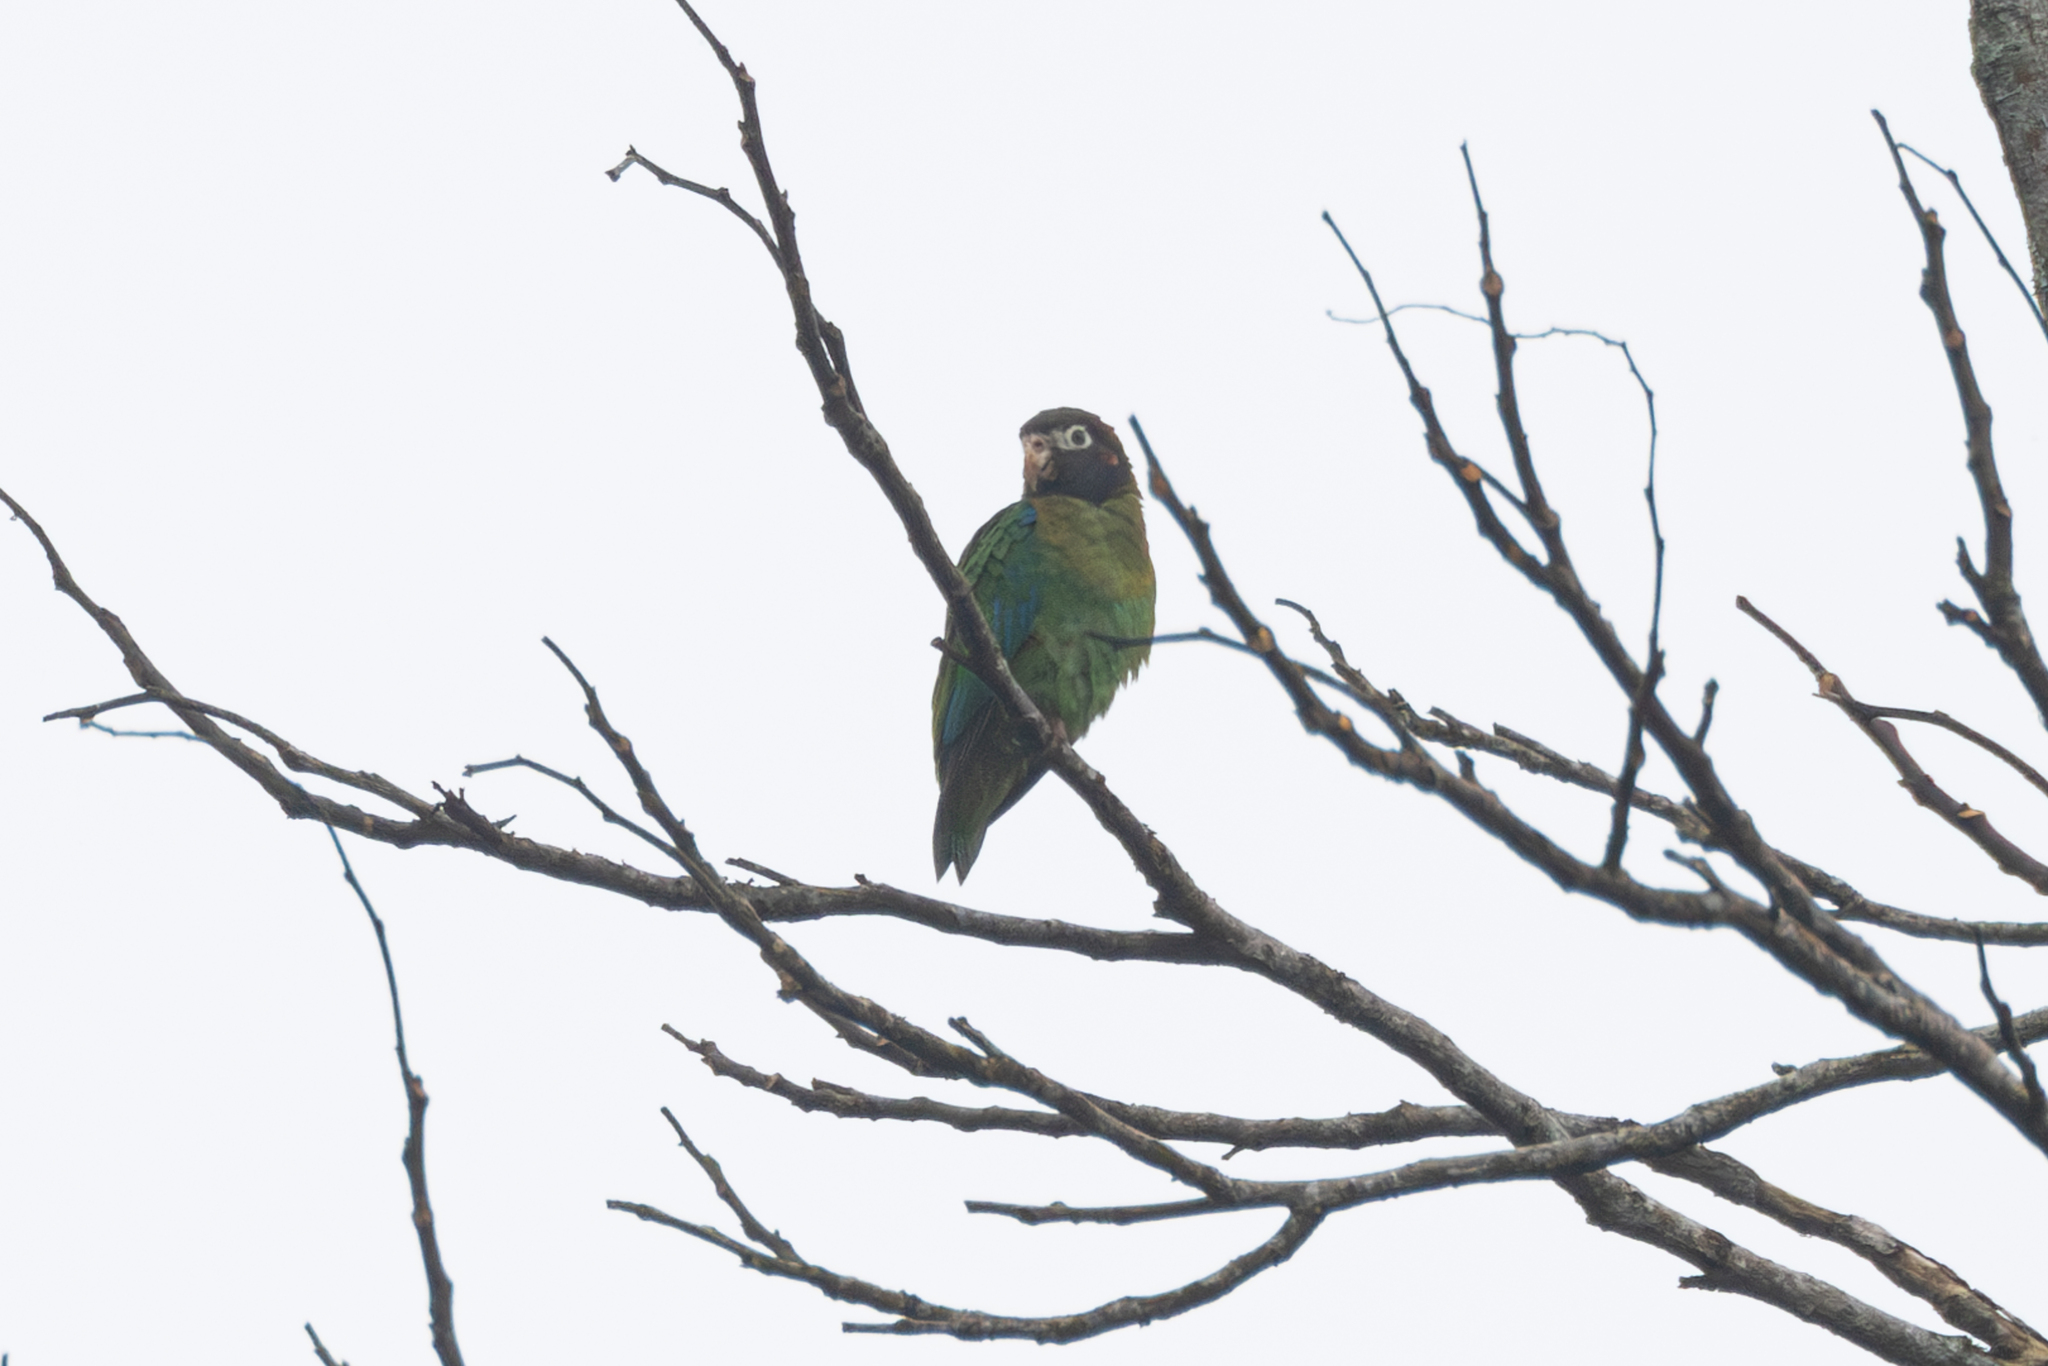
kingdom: Animalia
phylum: Chordata
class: Aves
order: Psittaciformes
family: Psittacidae
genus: Pionopsitta
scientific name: Pionopsitta haematotis
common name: Brown-hooded parrot
